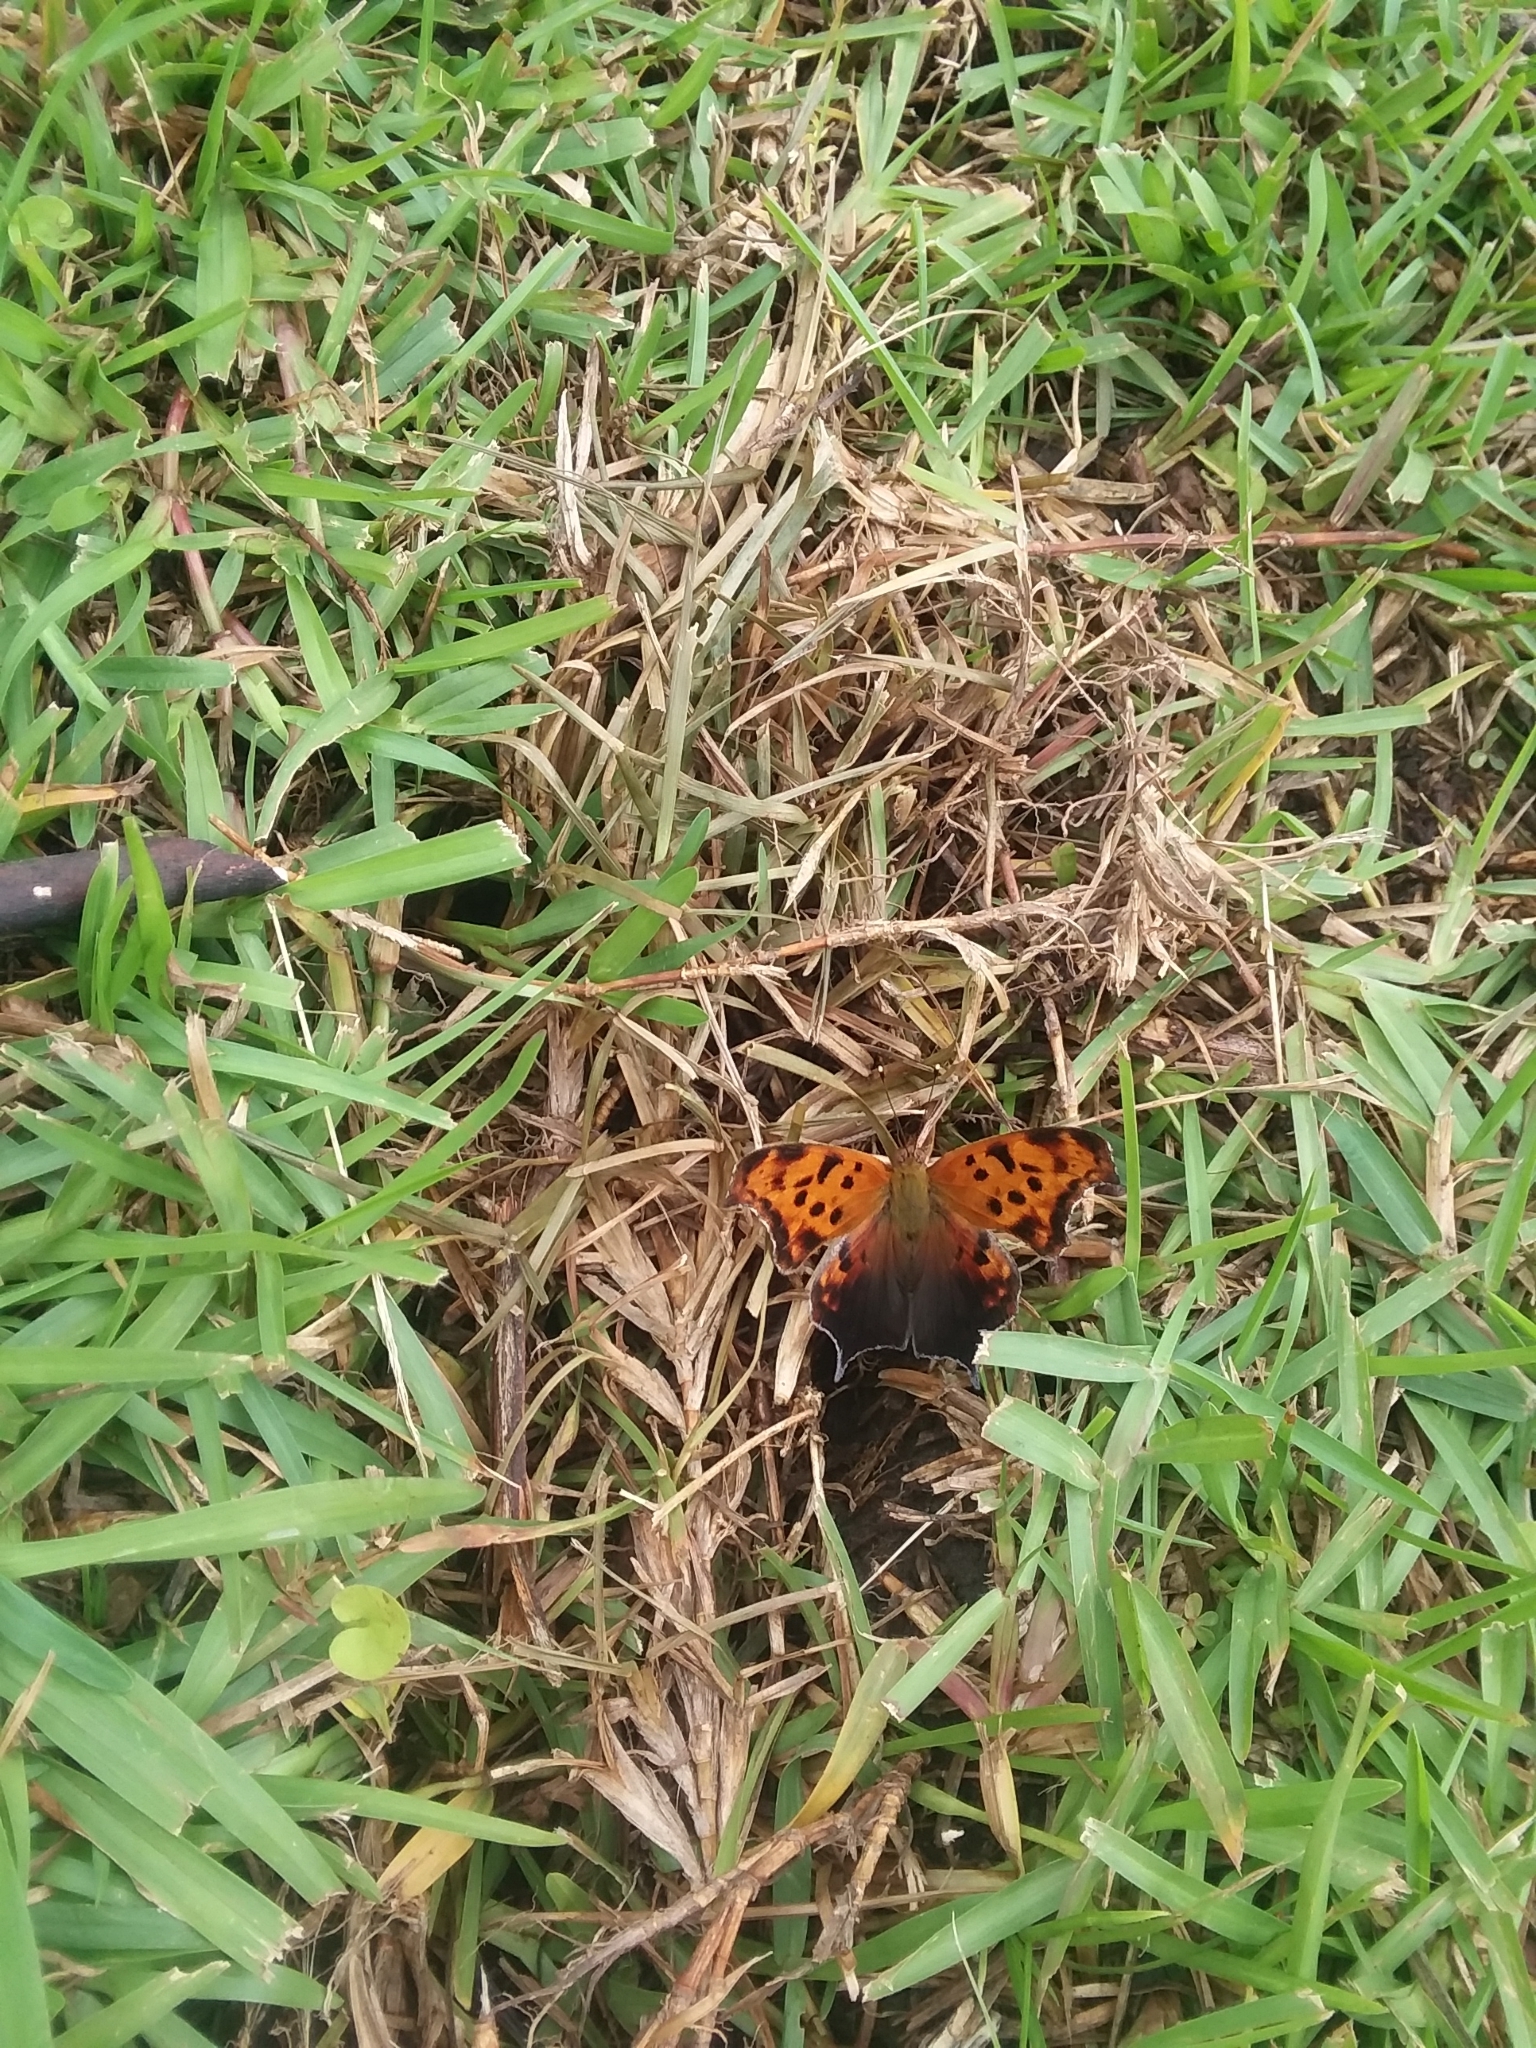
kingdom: Animalia
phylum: Arthropoda
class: Insecta
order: Lepidoptera
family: Nymphalidae
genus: Polygonia
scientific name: Polygonia interrogationis
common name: Question mark
